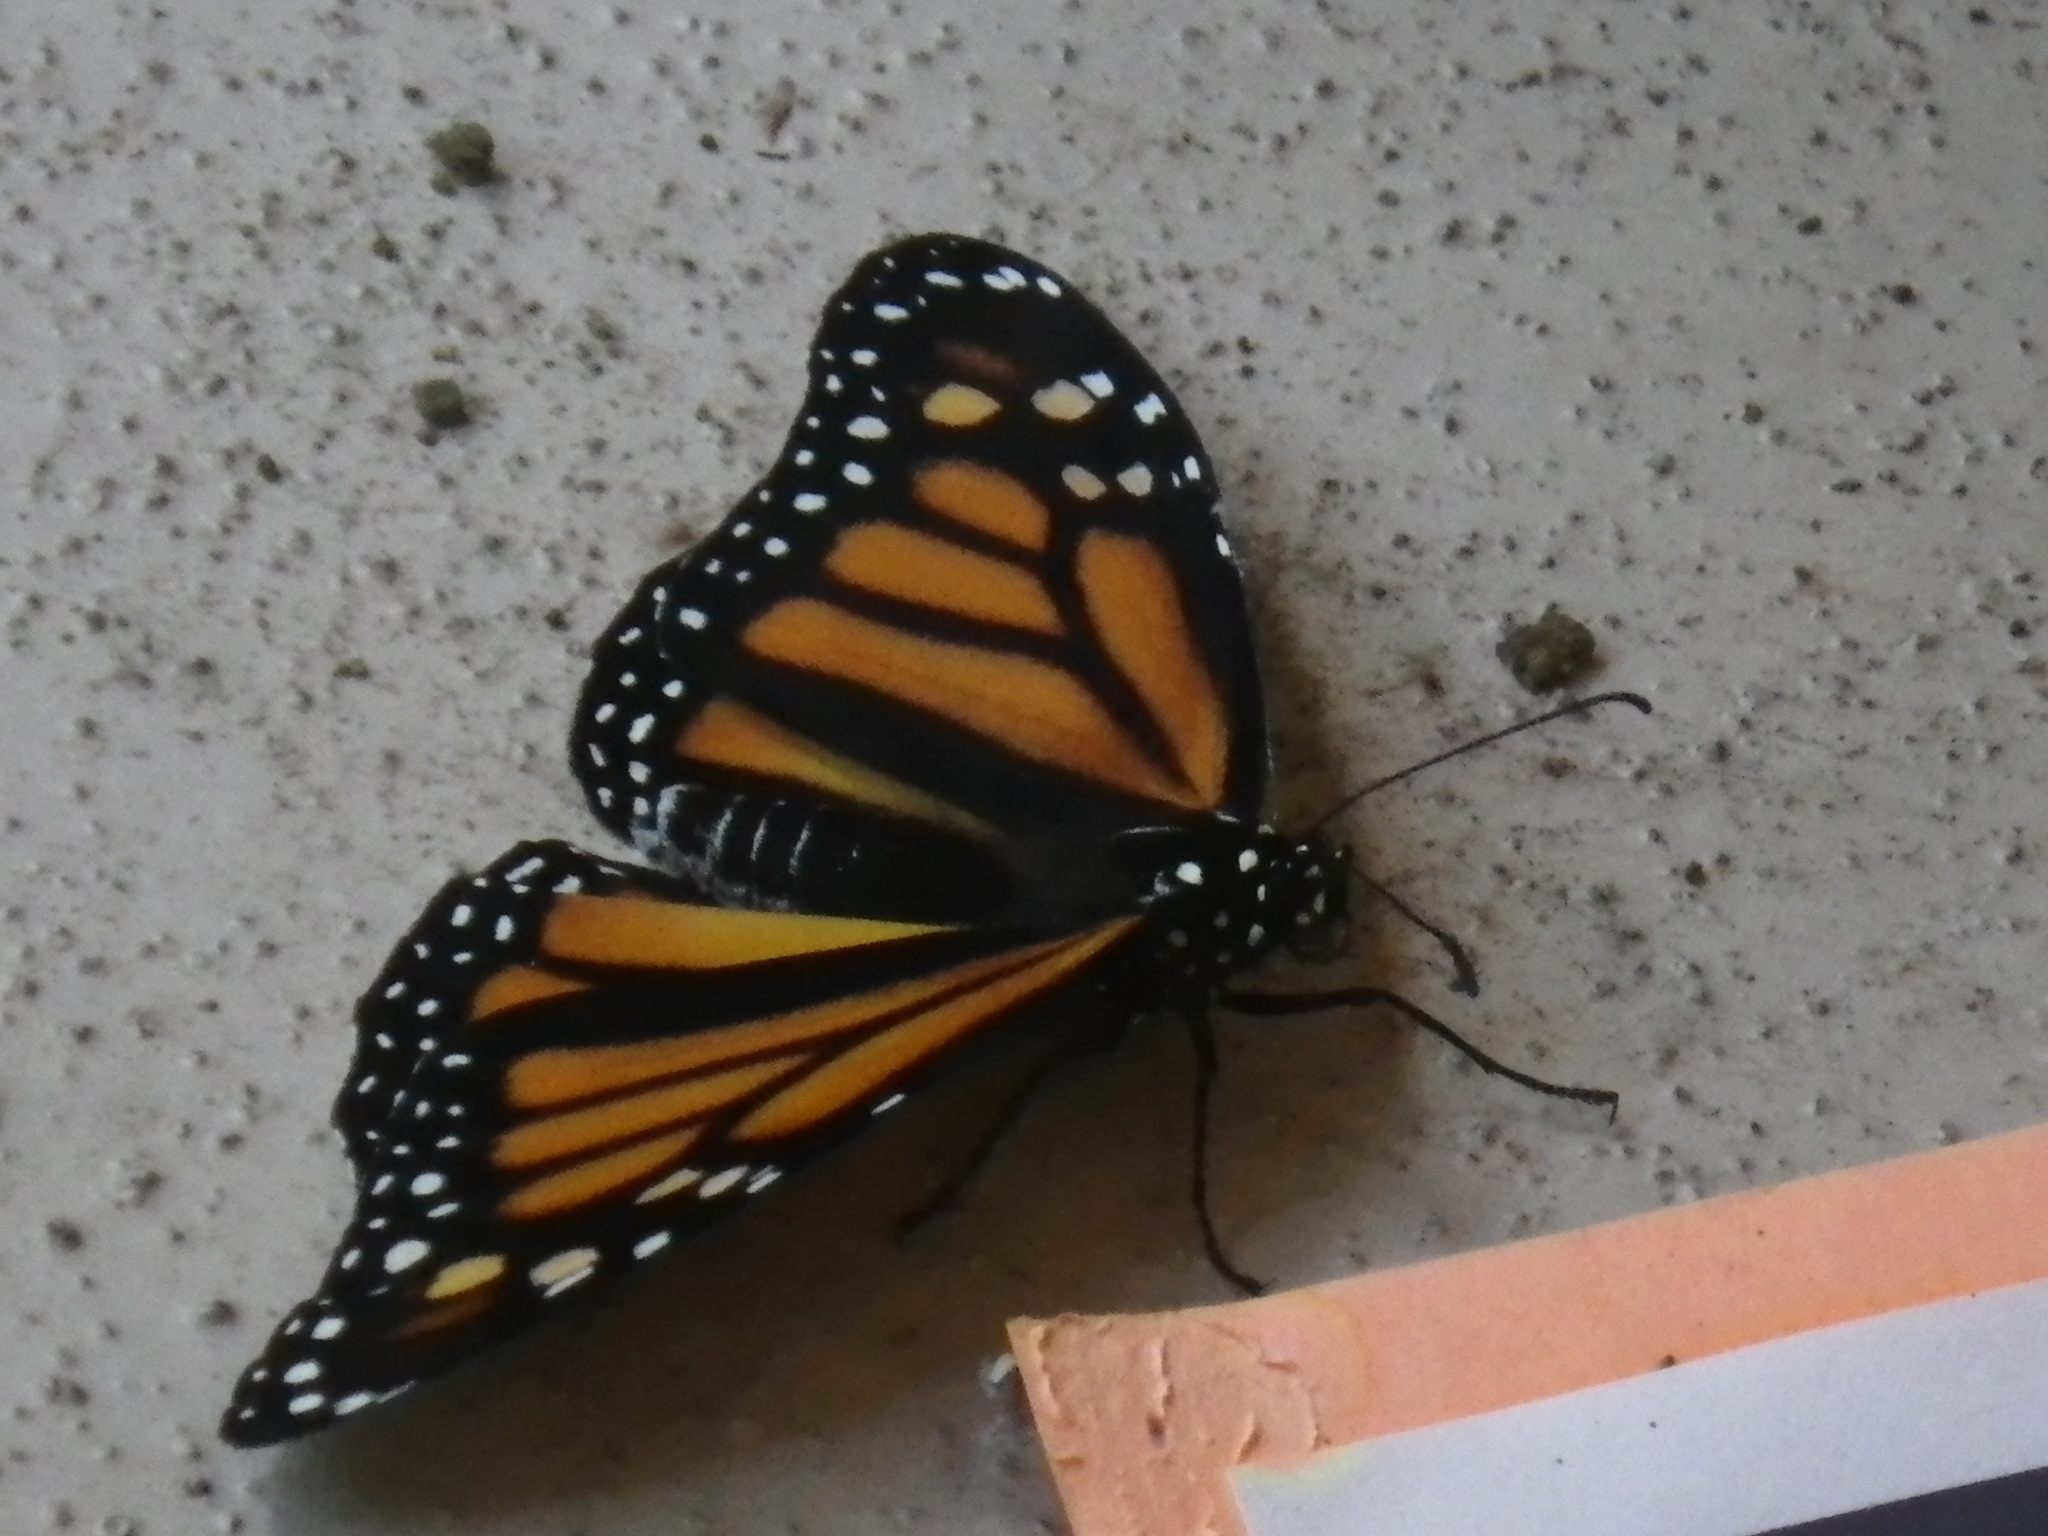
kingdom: Animalia
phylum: Arthropoda
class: Insecta
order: Lepidoptera
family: Nymphalidae
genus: Danaus
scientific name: Danaus plexippus
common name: Monarch
